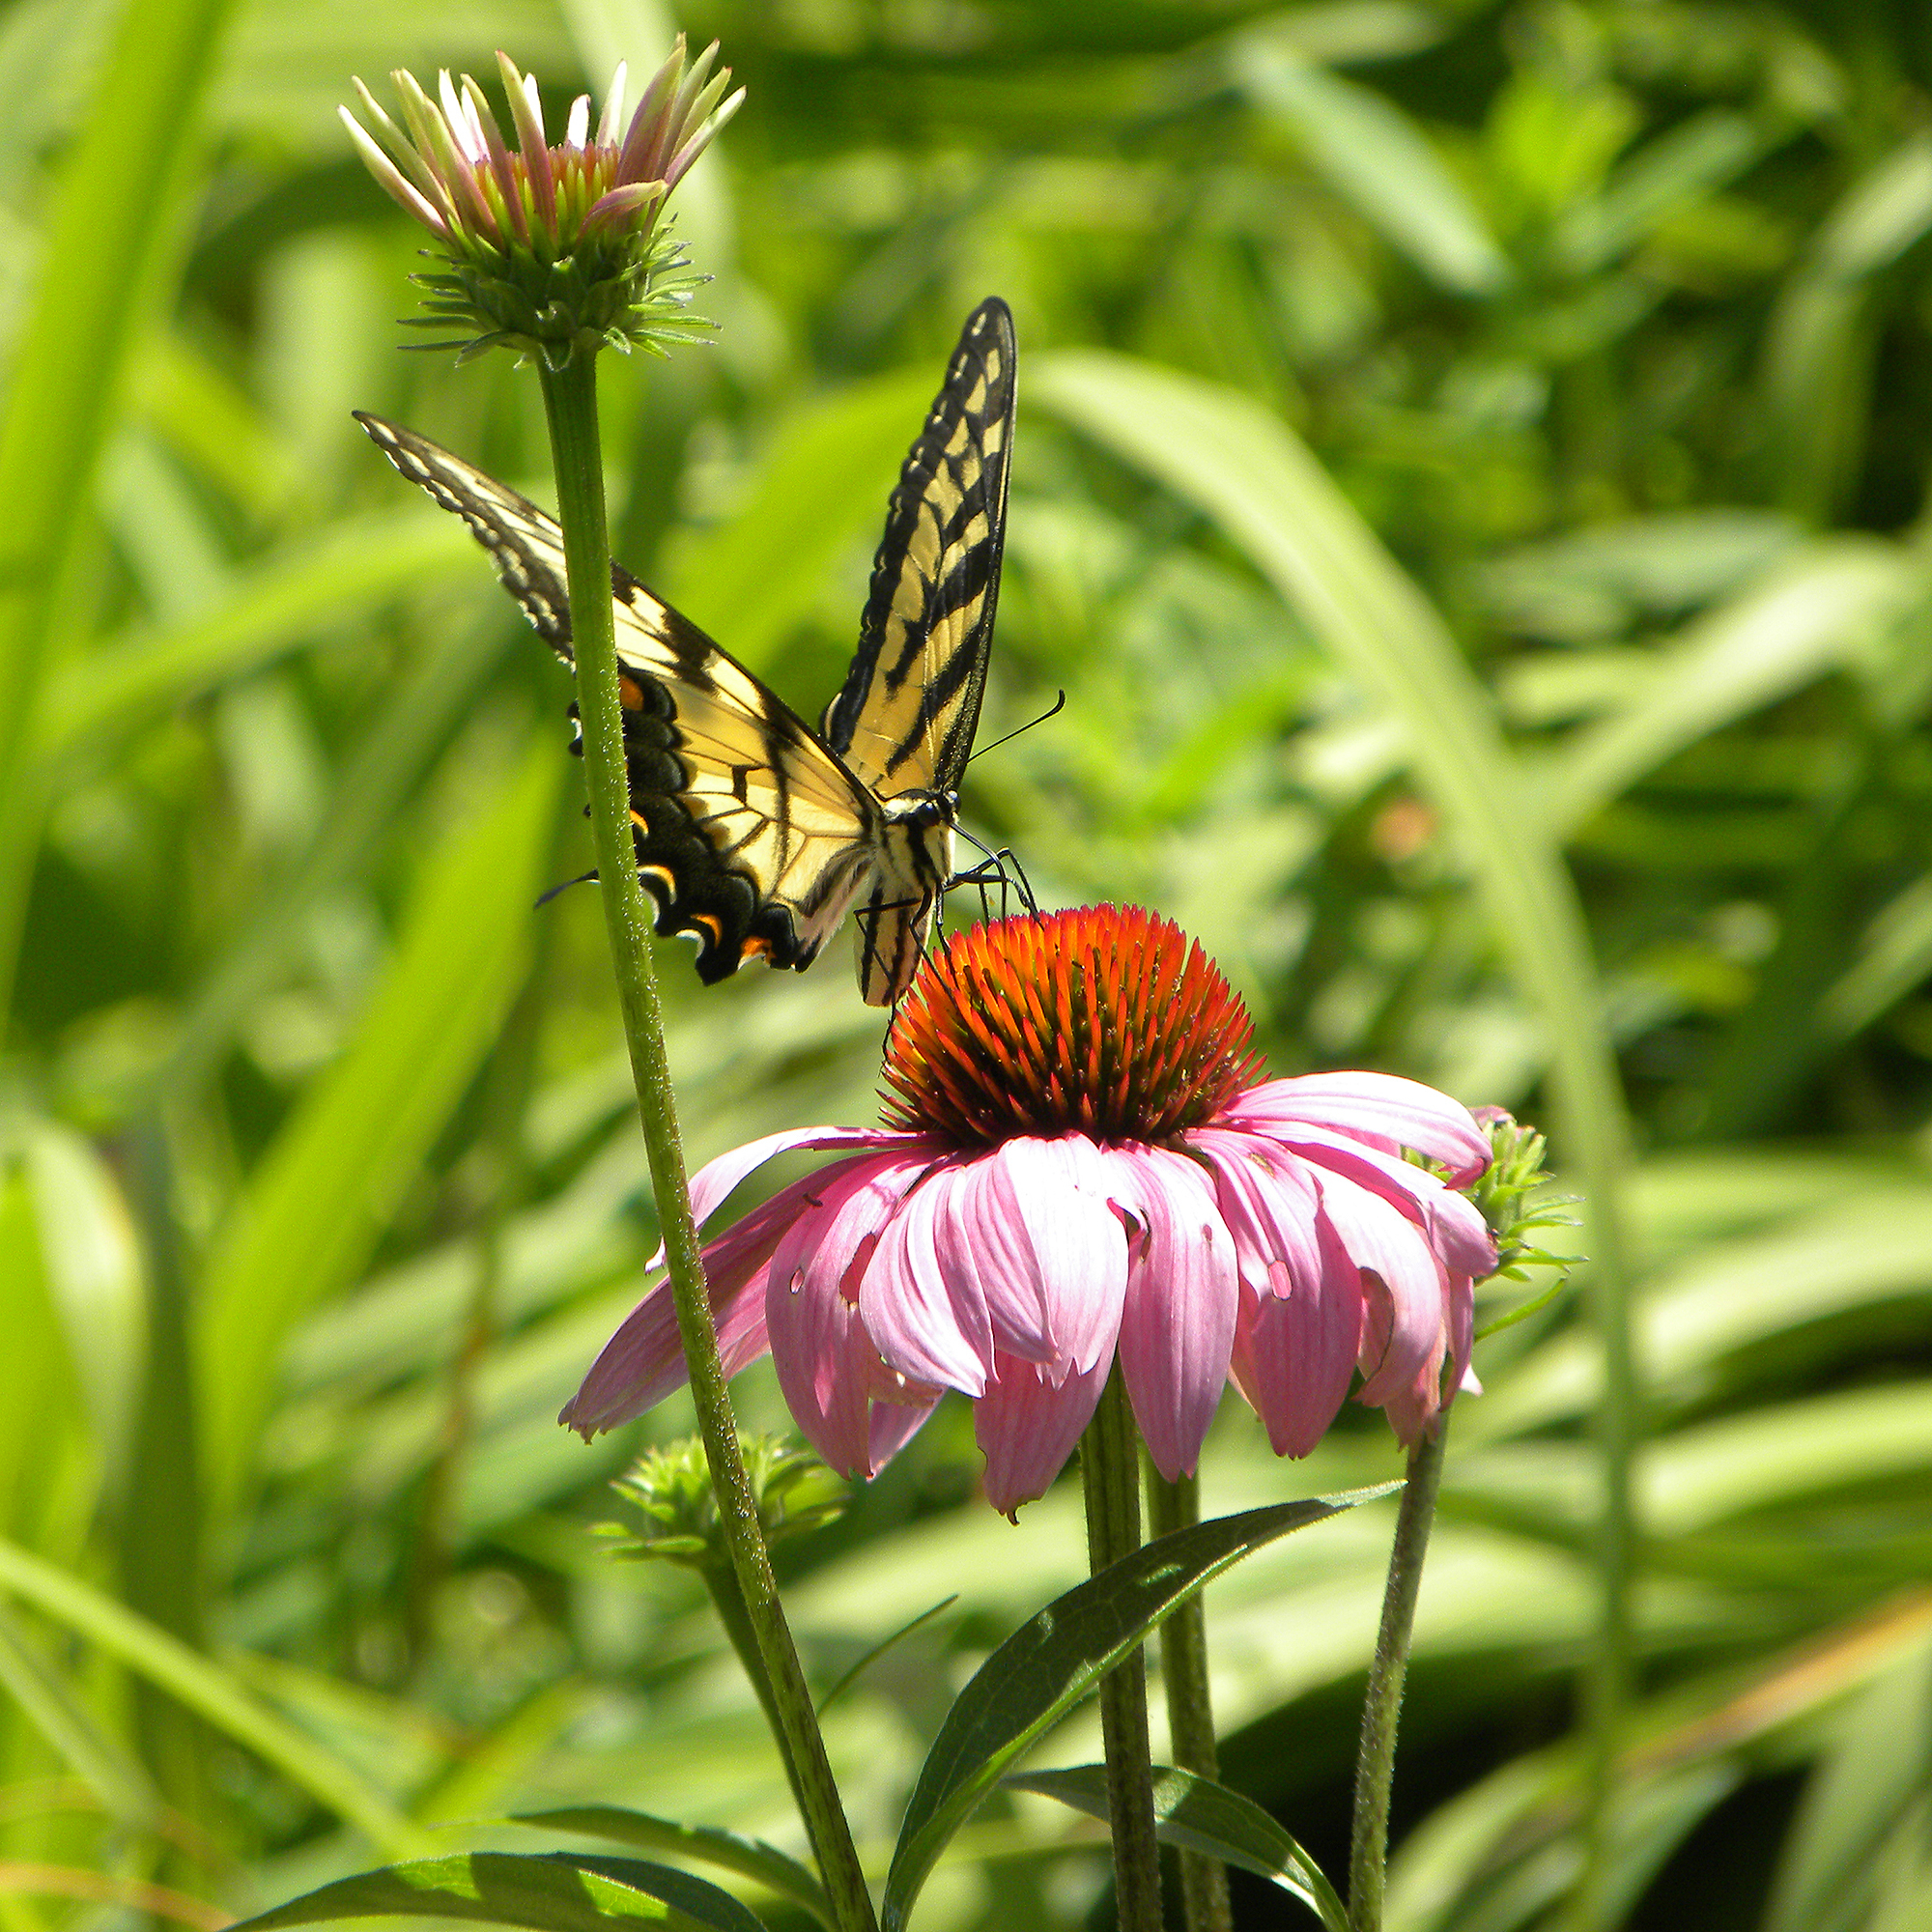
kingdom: Animalia
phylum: Arthropoda
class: Insecta
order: Lepidoptera
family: Papilionidae
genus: Papilio
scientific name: Papilio glaucus
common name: Tiger swallowtail
